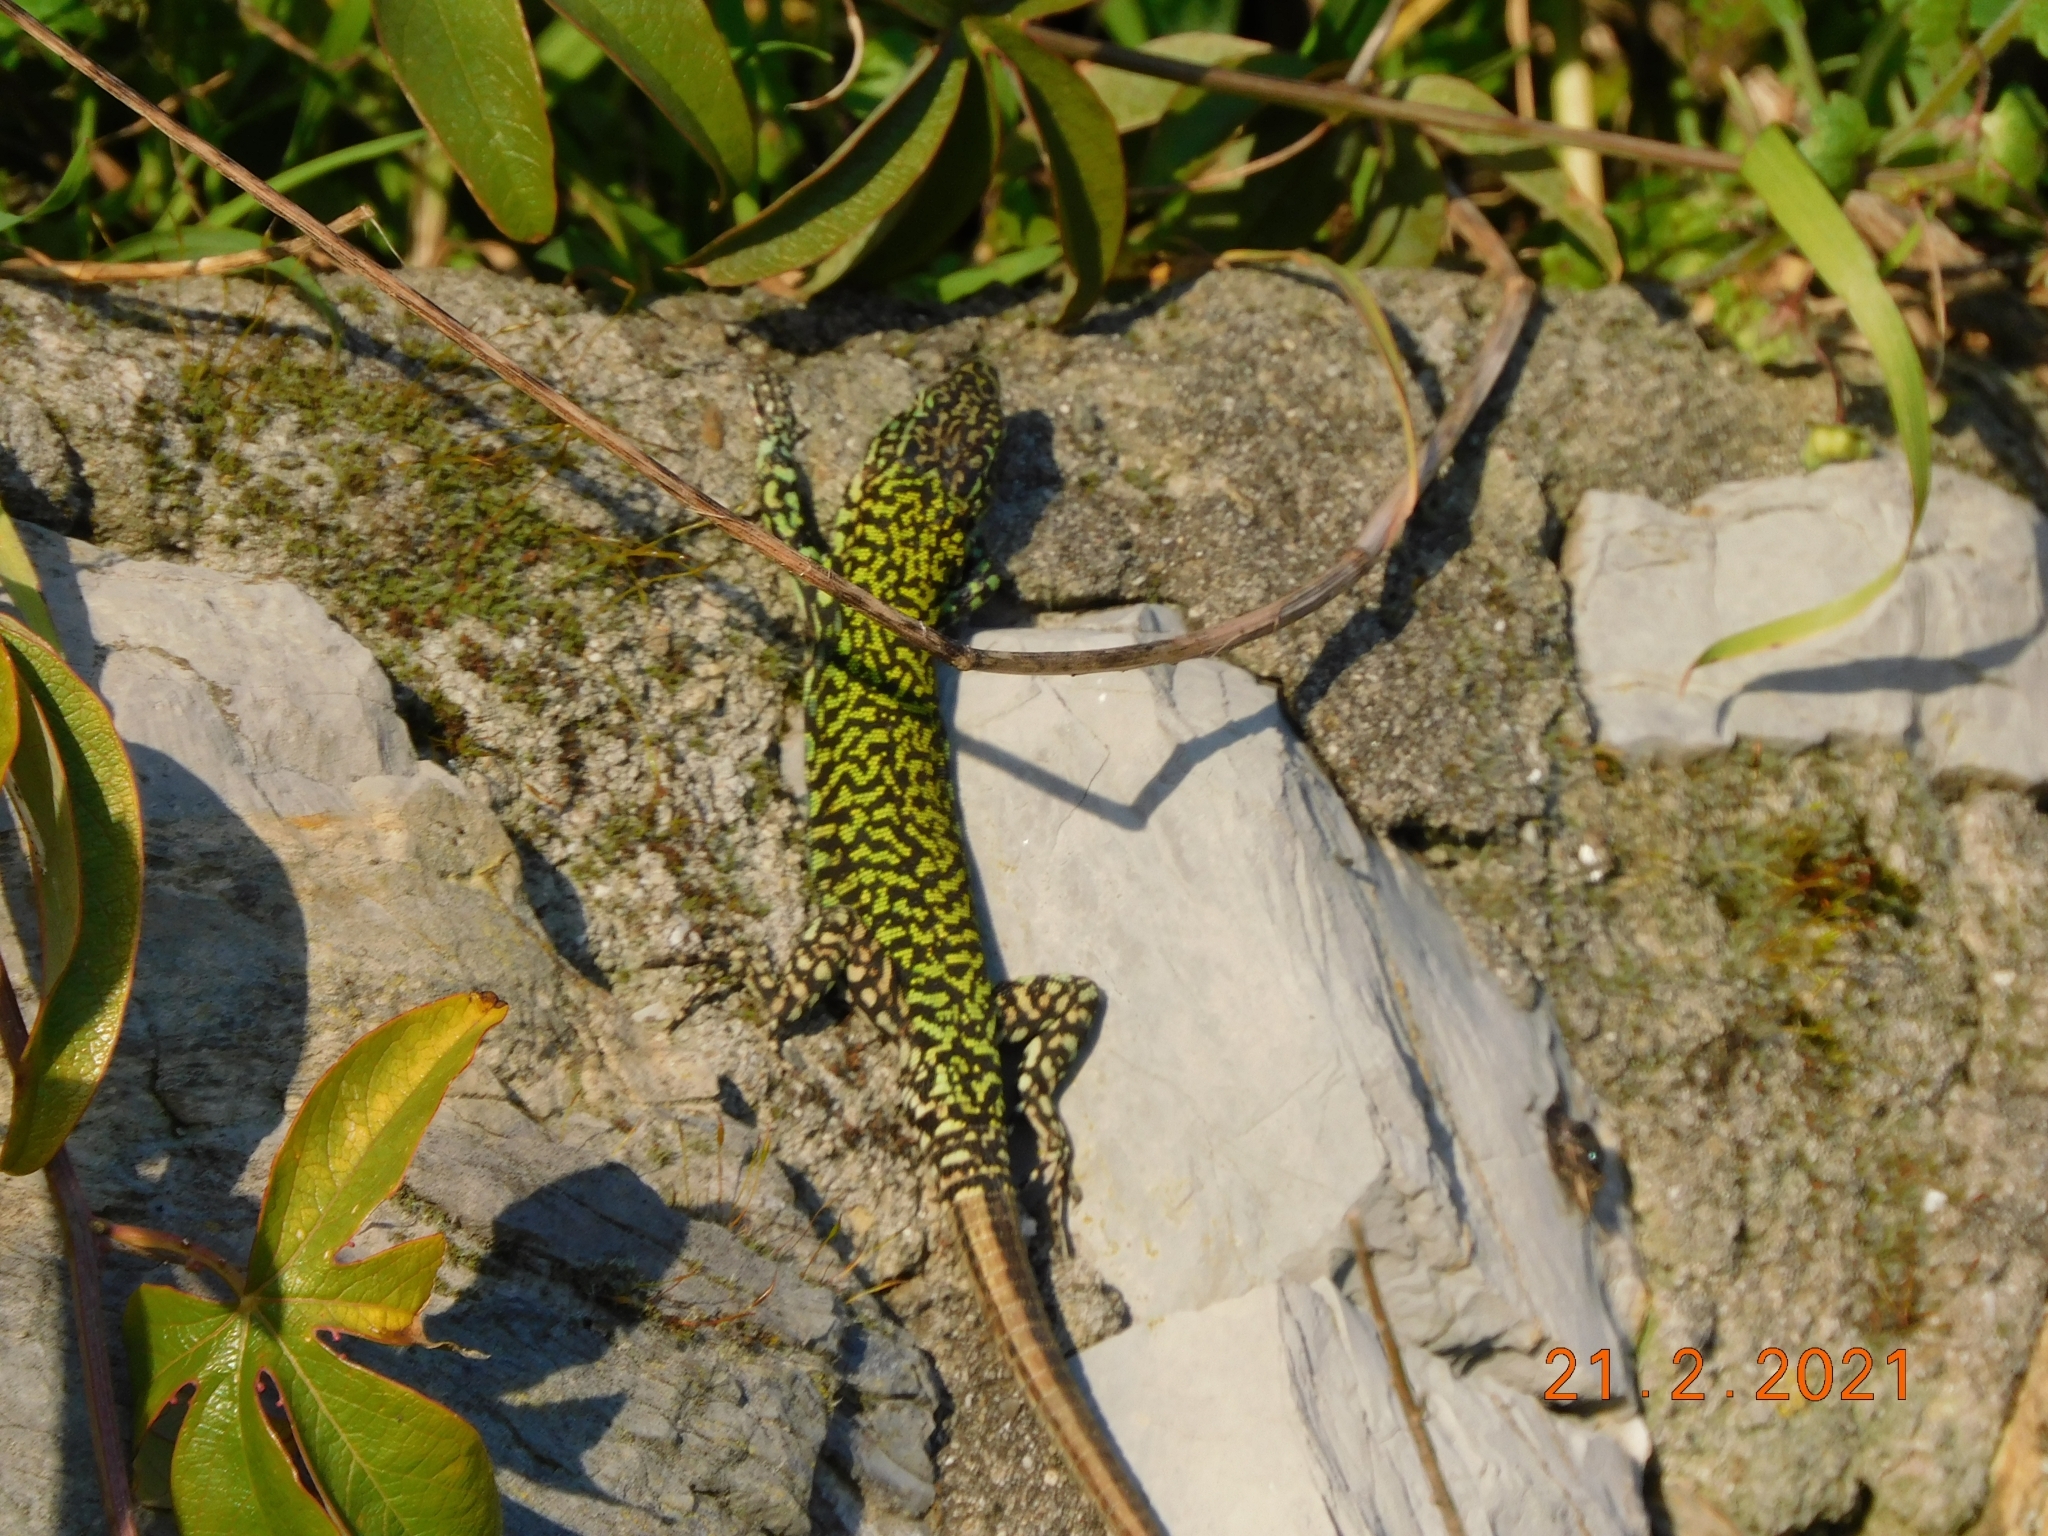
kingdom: Animalia
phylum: Chordata
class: Squamata
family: Lacertidae
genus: Podarcis
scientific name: Podarcis muralis
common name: Common wall lizard
